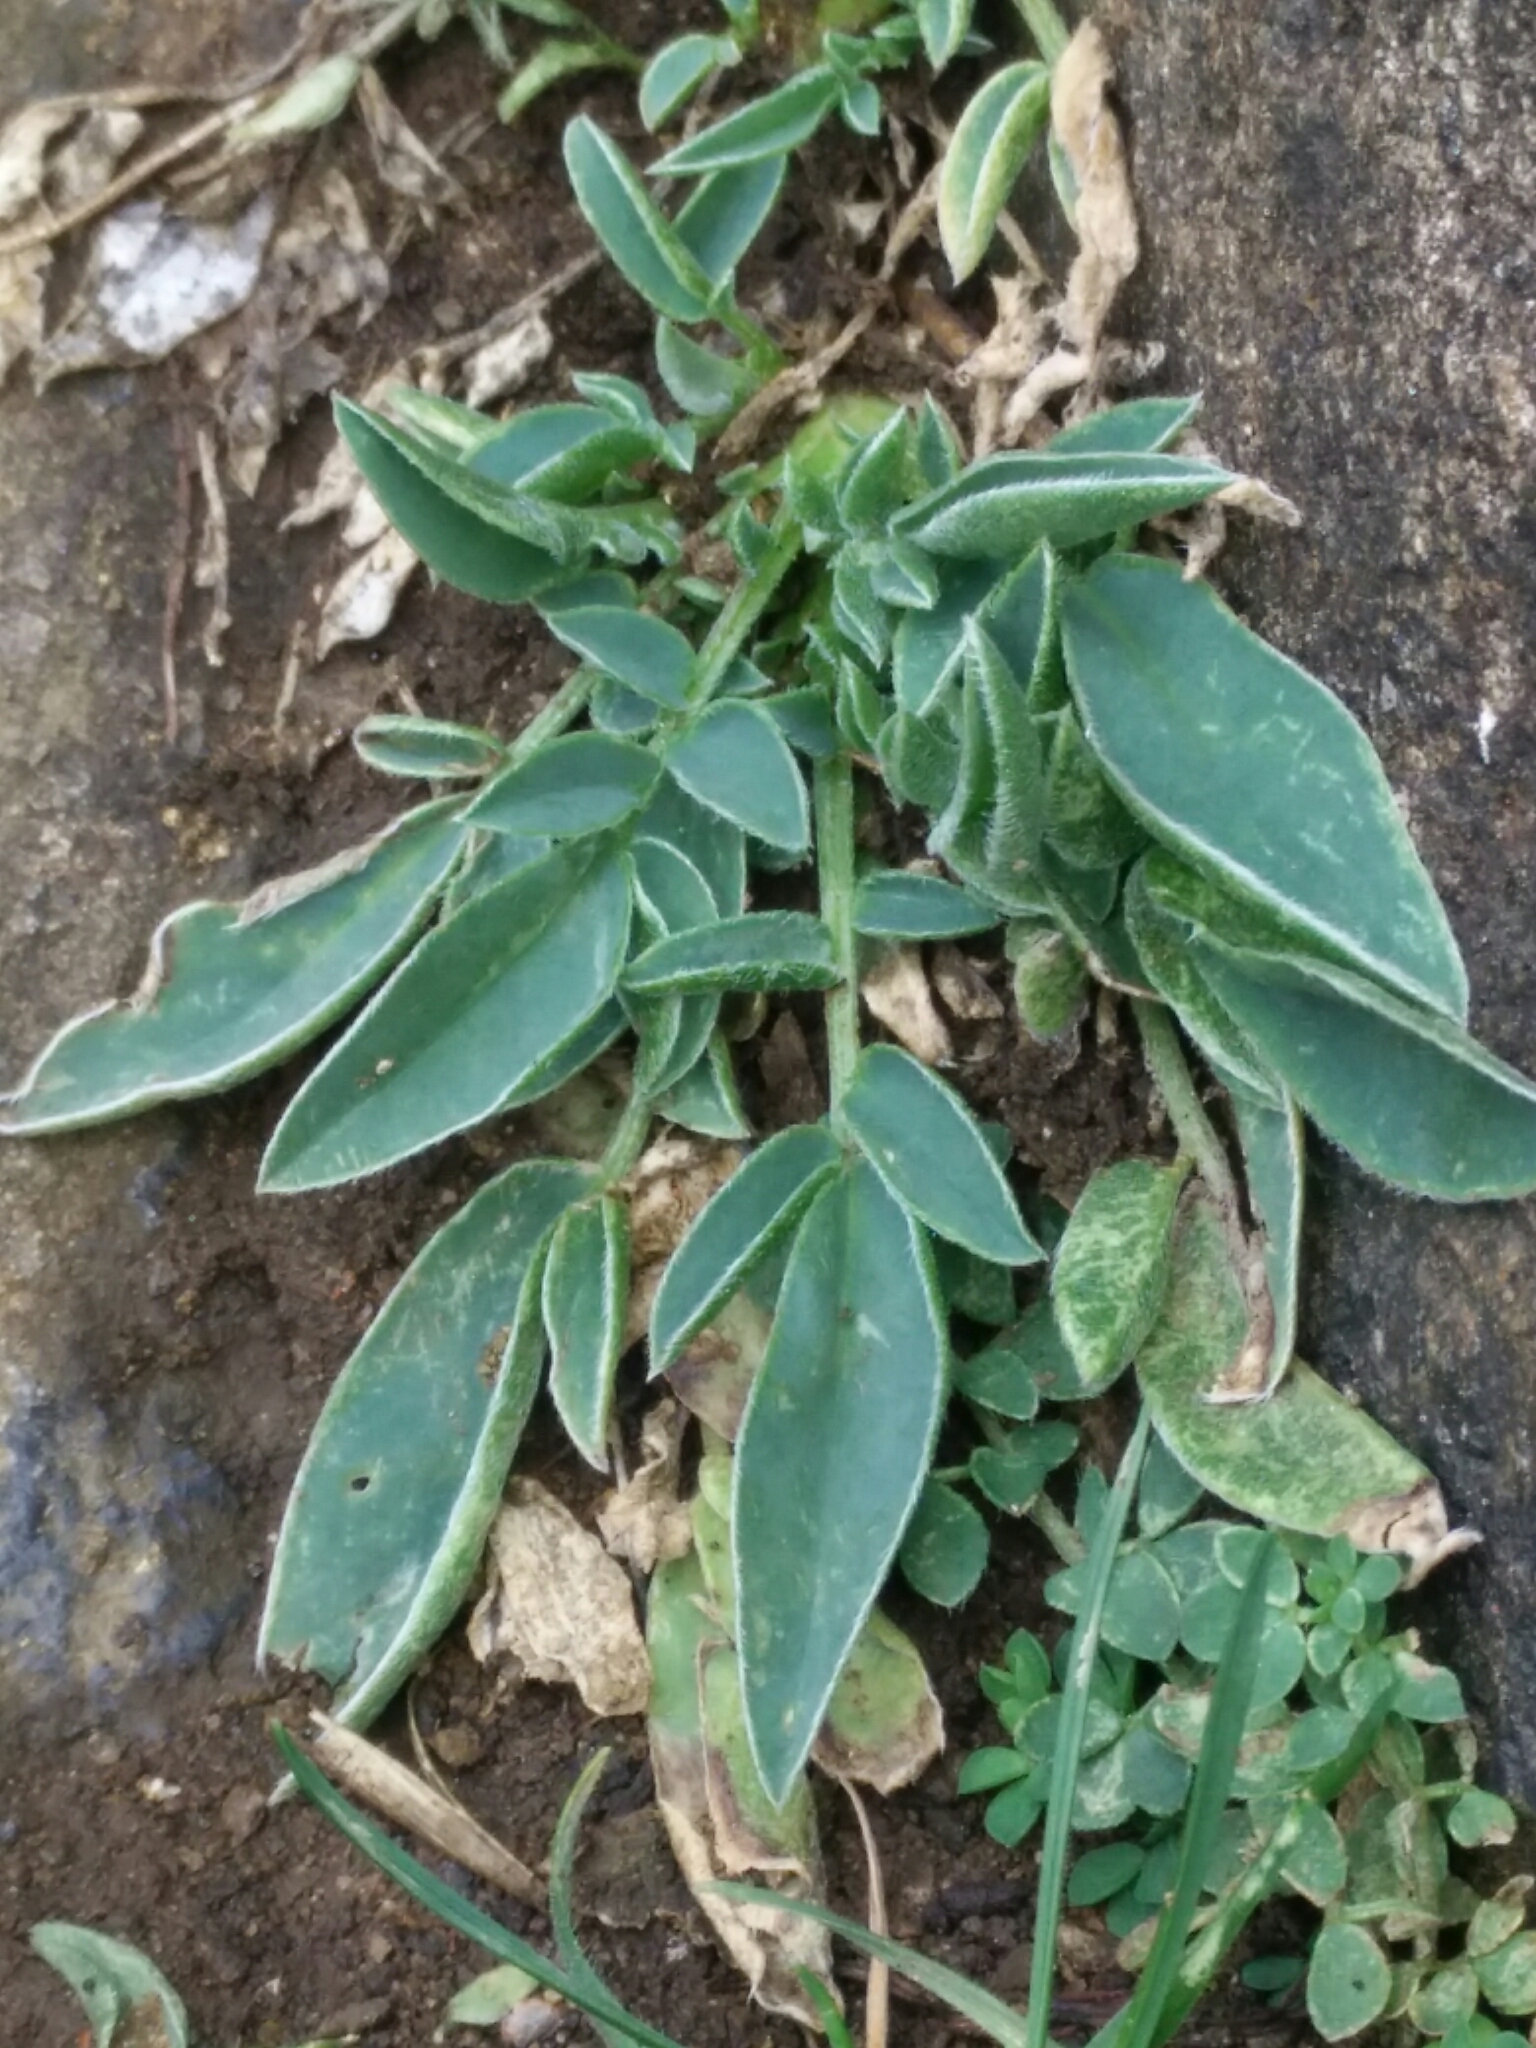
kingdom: Plantae
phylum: Tracheophyta
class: Magnoliopsida
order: Fabales
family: Fabaceae
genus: Anthyllis
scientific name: Anthyllis vulneraria
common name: Kidney vetch
